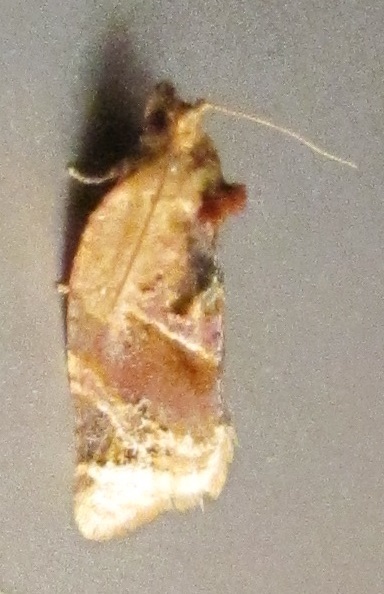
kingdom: Animalia
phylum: Arthropoda
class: Insecta
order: Lepidoptera
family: Tortricidae
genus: Argyrotaenia
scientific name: Argyrotaenia velutinana
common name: Red-banded leafroller moth
